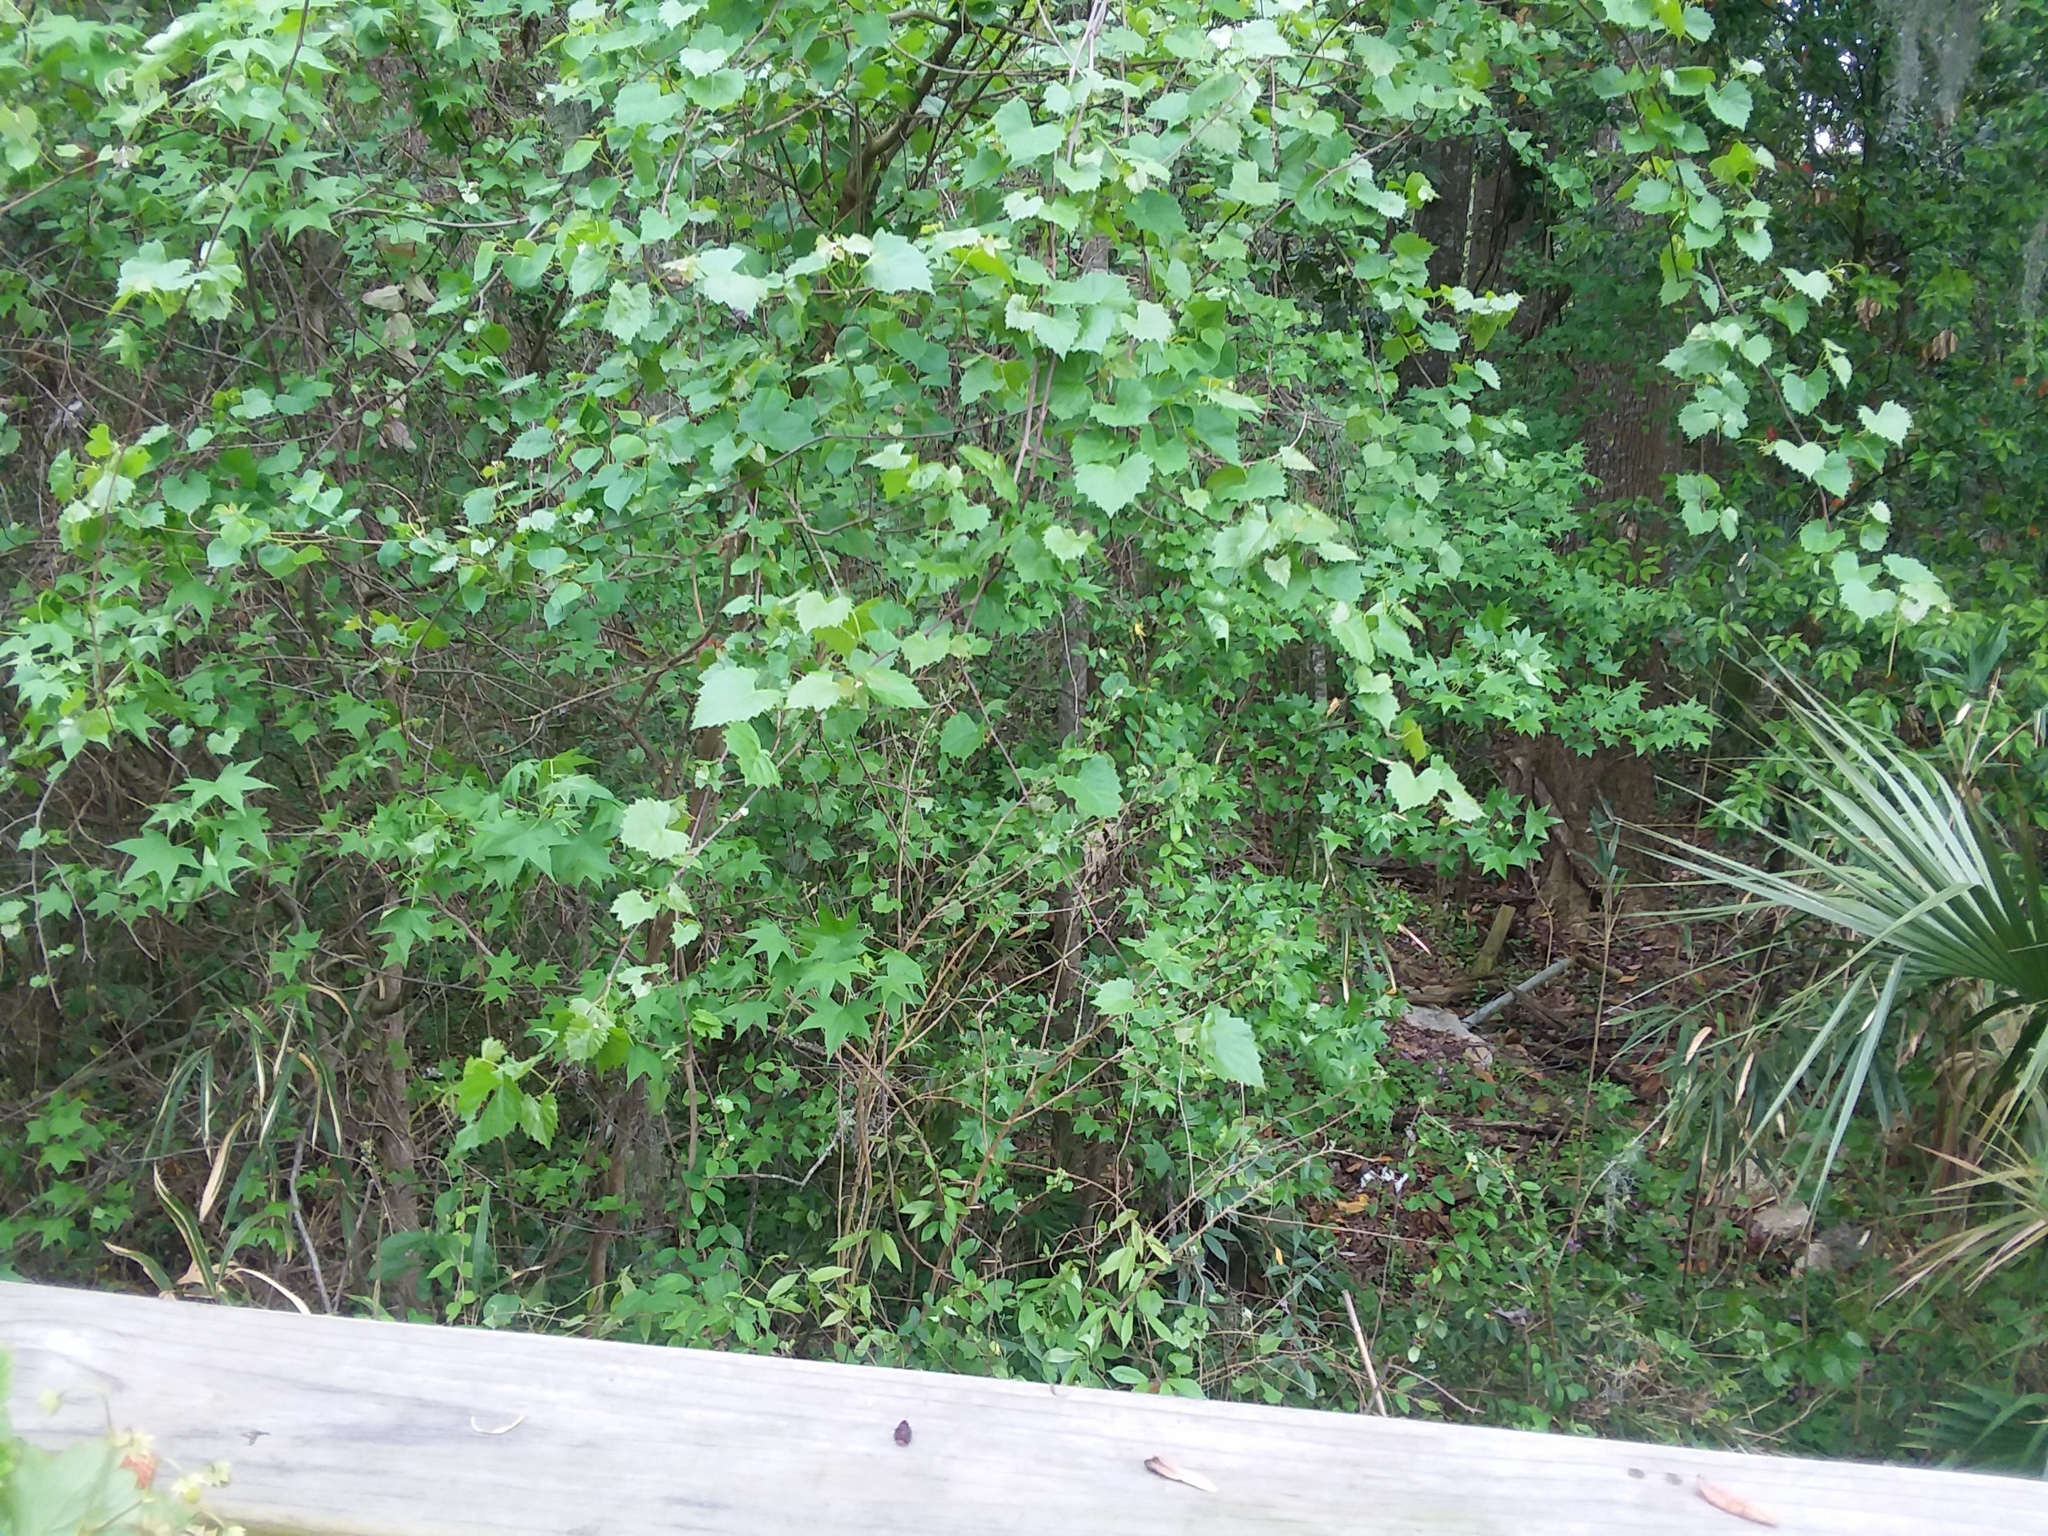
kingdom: Plantae
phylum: Tracheophyta
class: Magnoliopsida
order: Vitales
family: Vitaceae
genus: Vitis
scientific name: Vitis rotundifolia
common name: Muscadine grape
